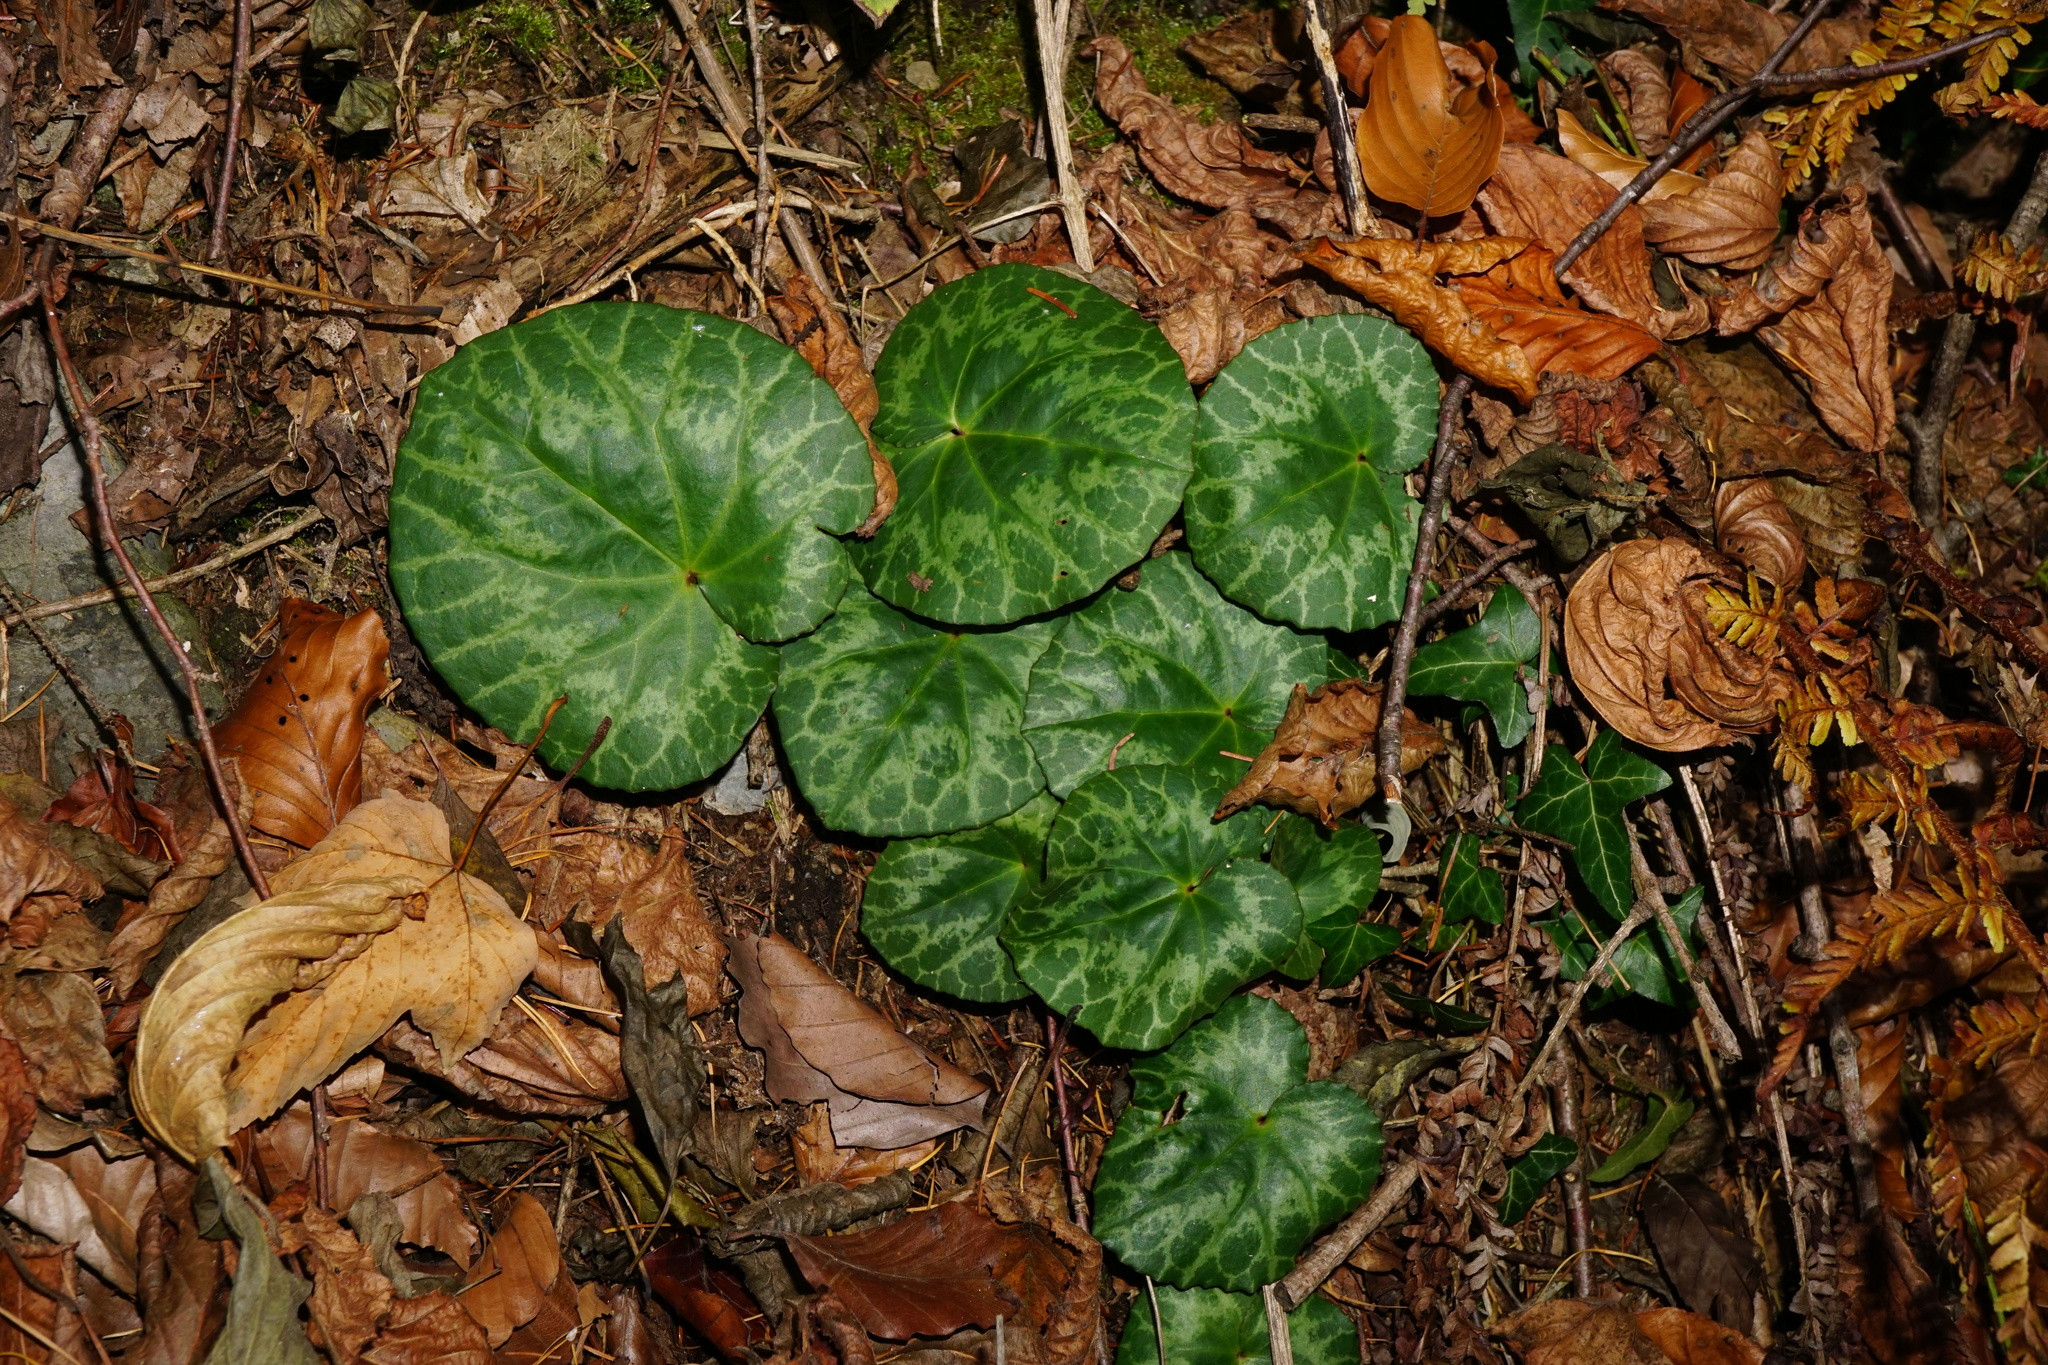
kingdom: Plantae
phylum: Tracheophyta
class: Magnoliopsida
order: Ericales
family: Primulaceae
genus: Cyclamen
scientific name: Cyclamen purpurascens
